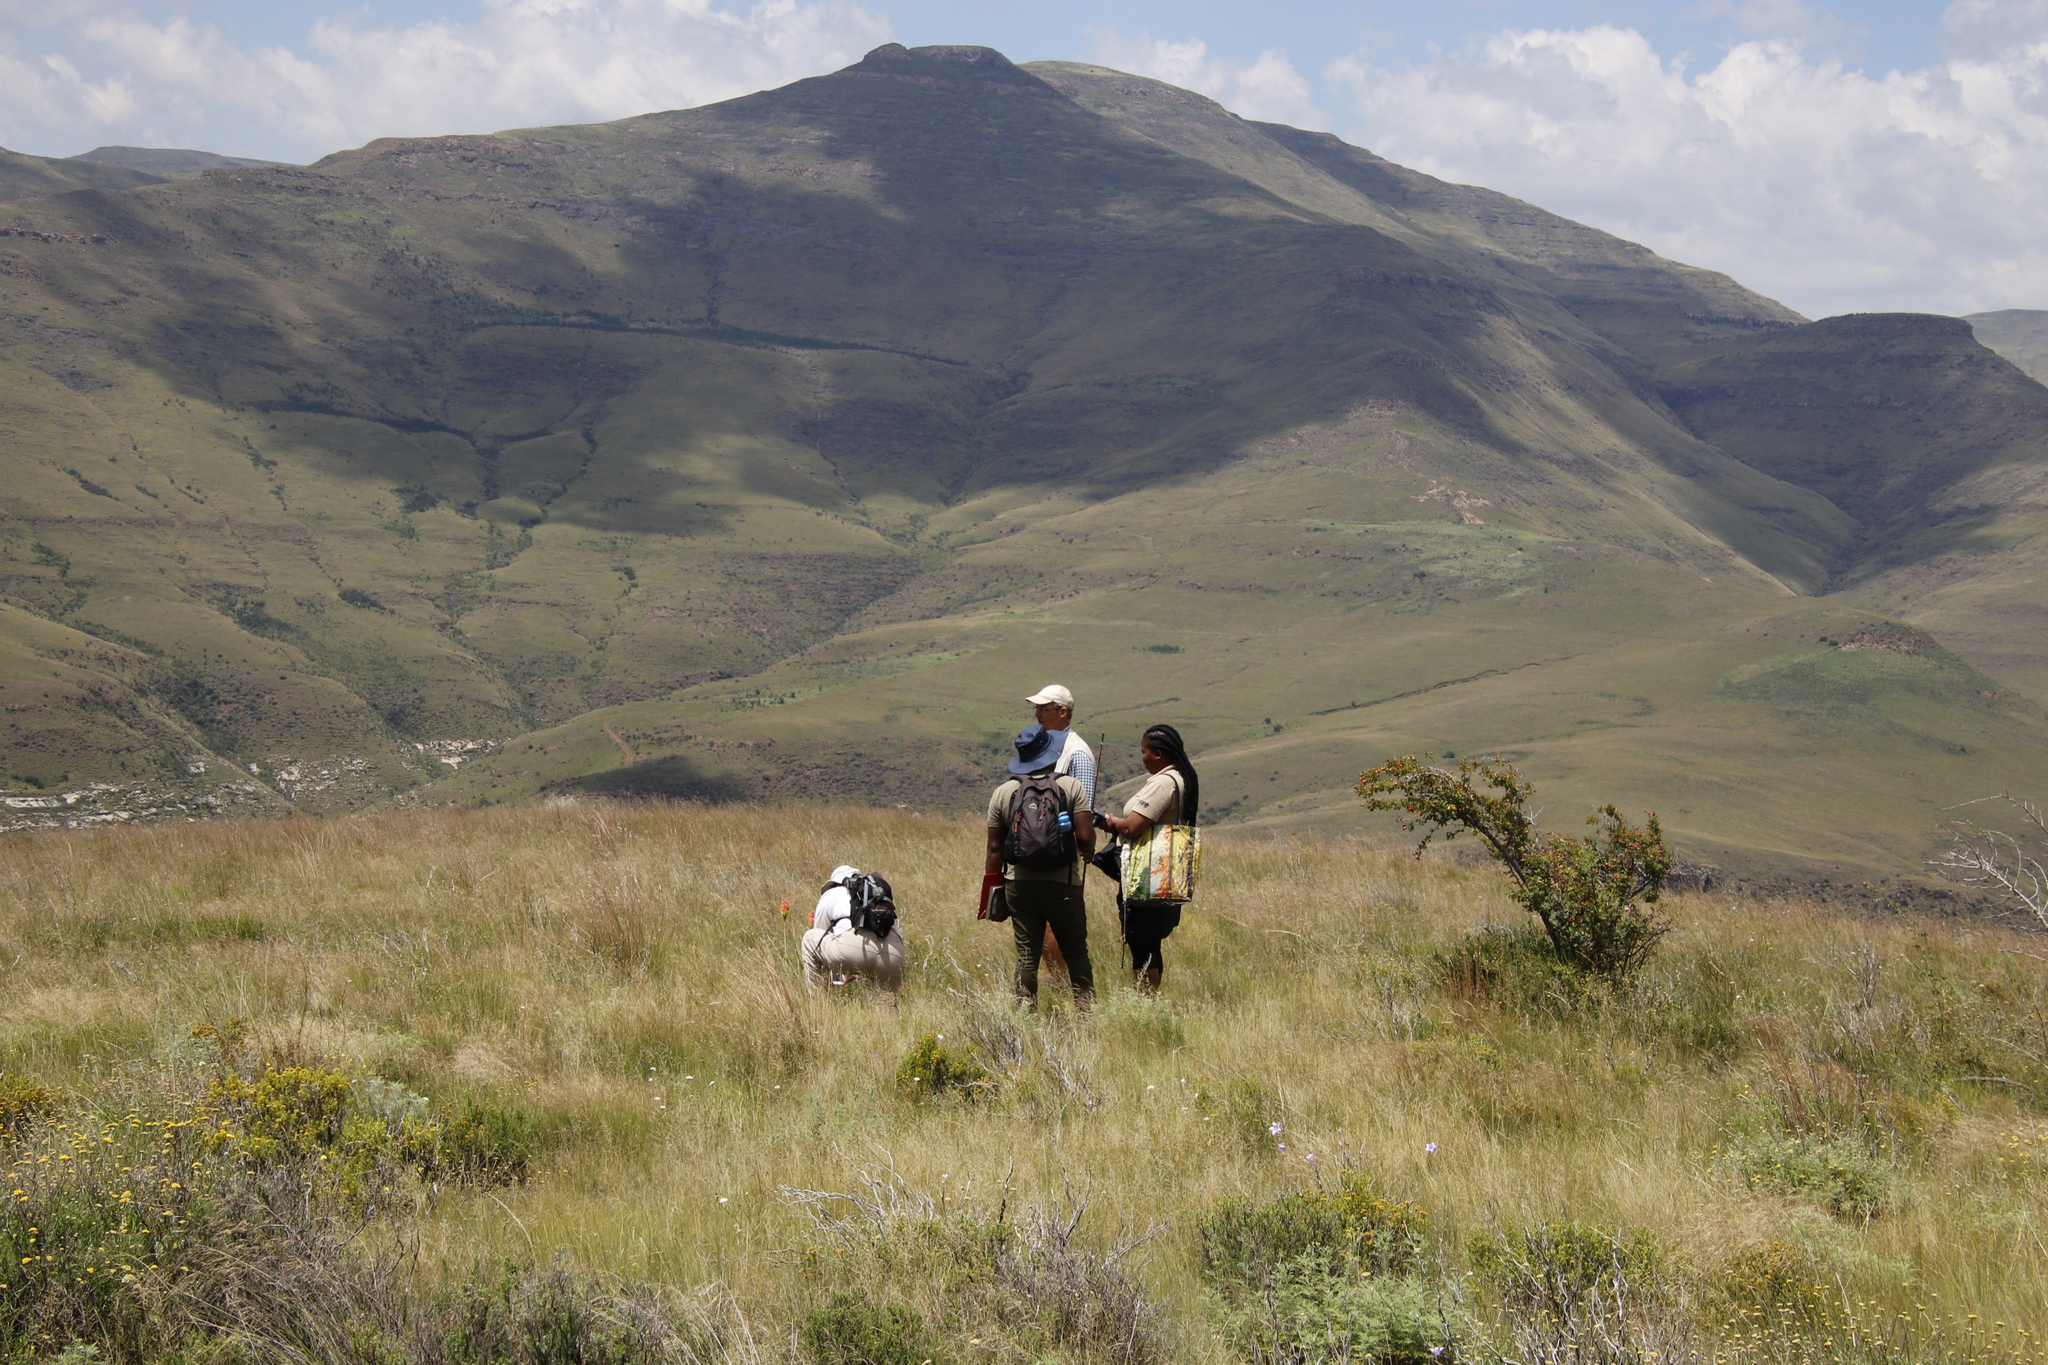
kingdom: Plantae
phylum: Tracheophyta
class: Magnoliopsida
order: Rosales
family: Rosaceae
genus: Rosa
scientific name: Rosa rubiginosa
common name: Sweet-briar
